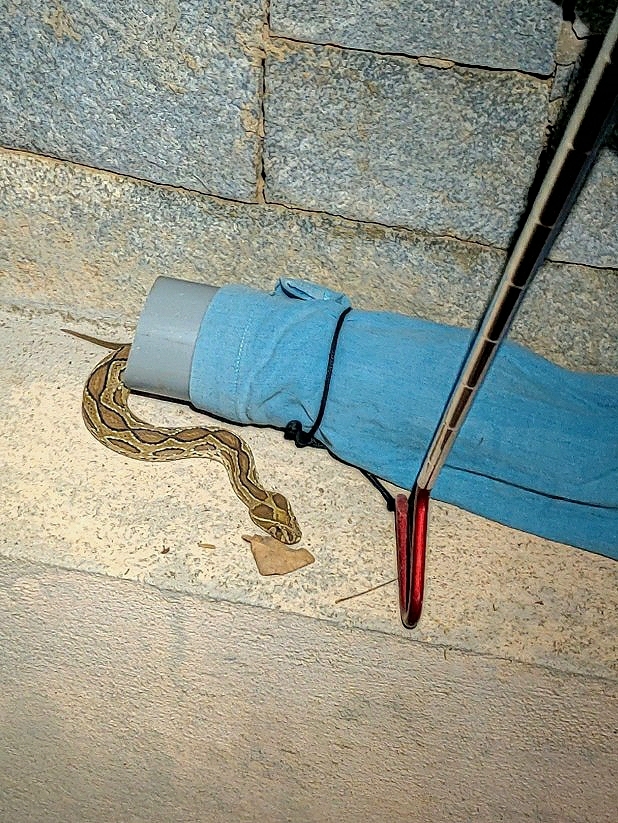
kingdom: Animalia
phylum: Chordata
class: Squamata
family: Viperidae
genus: Daboia
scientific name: Daboia russelii
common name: Western russel’s viper
